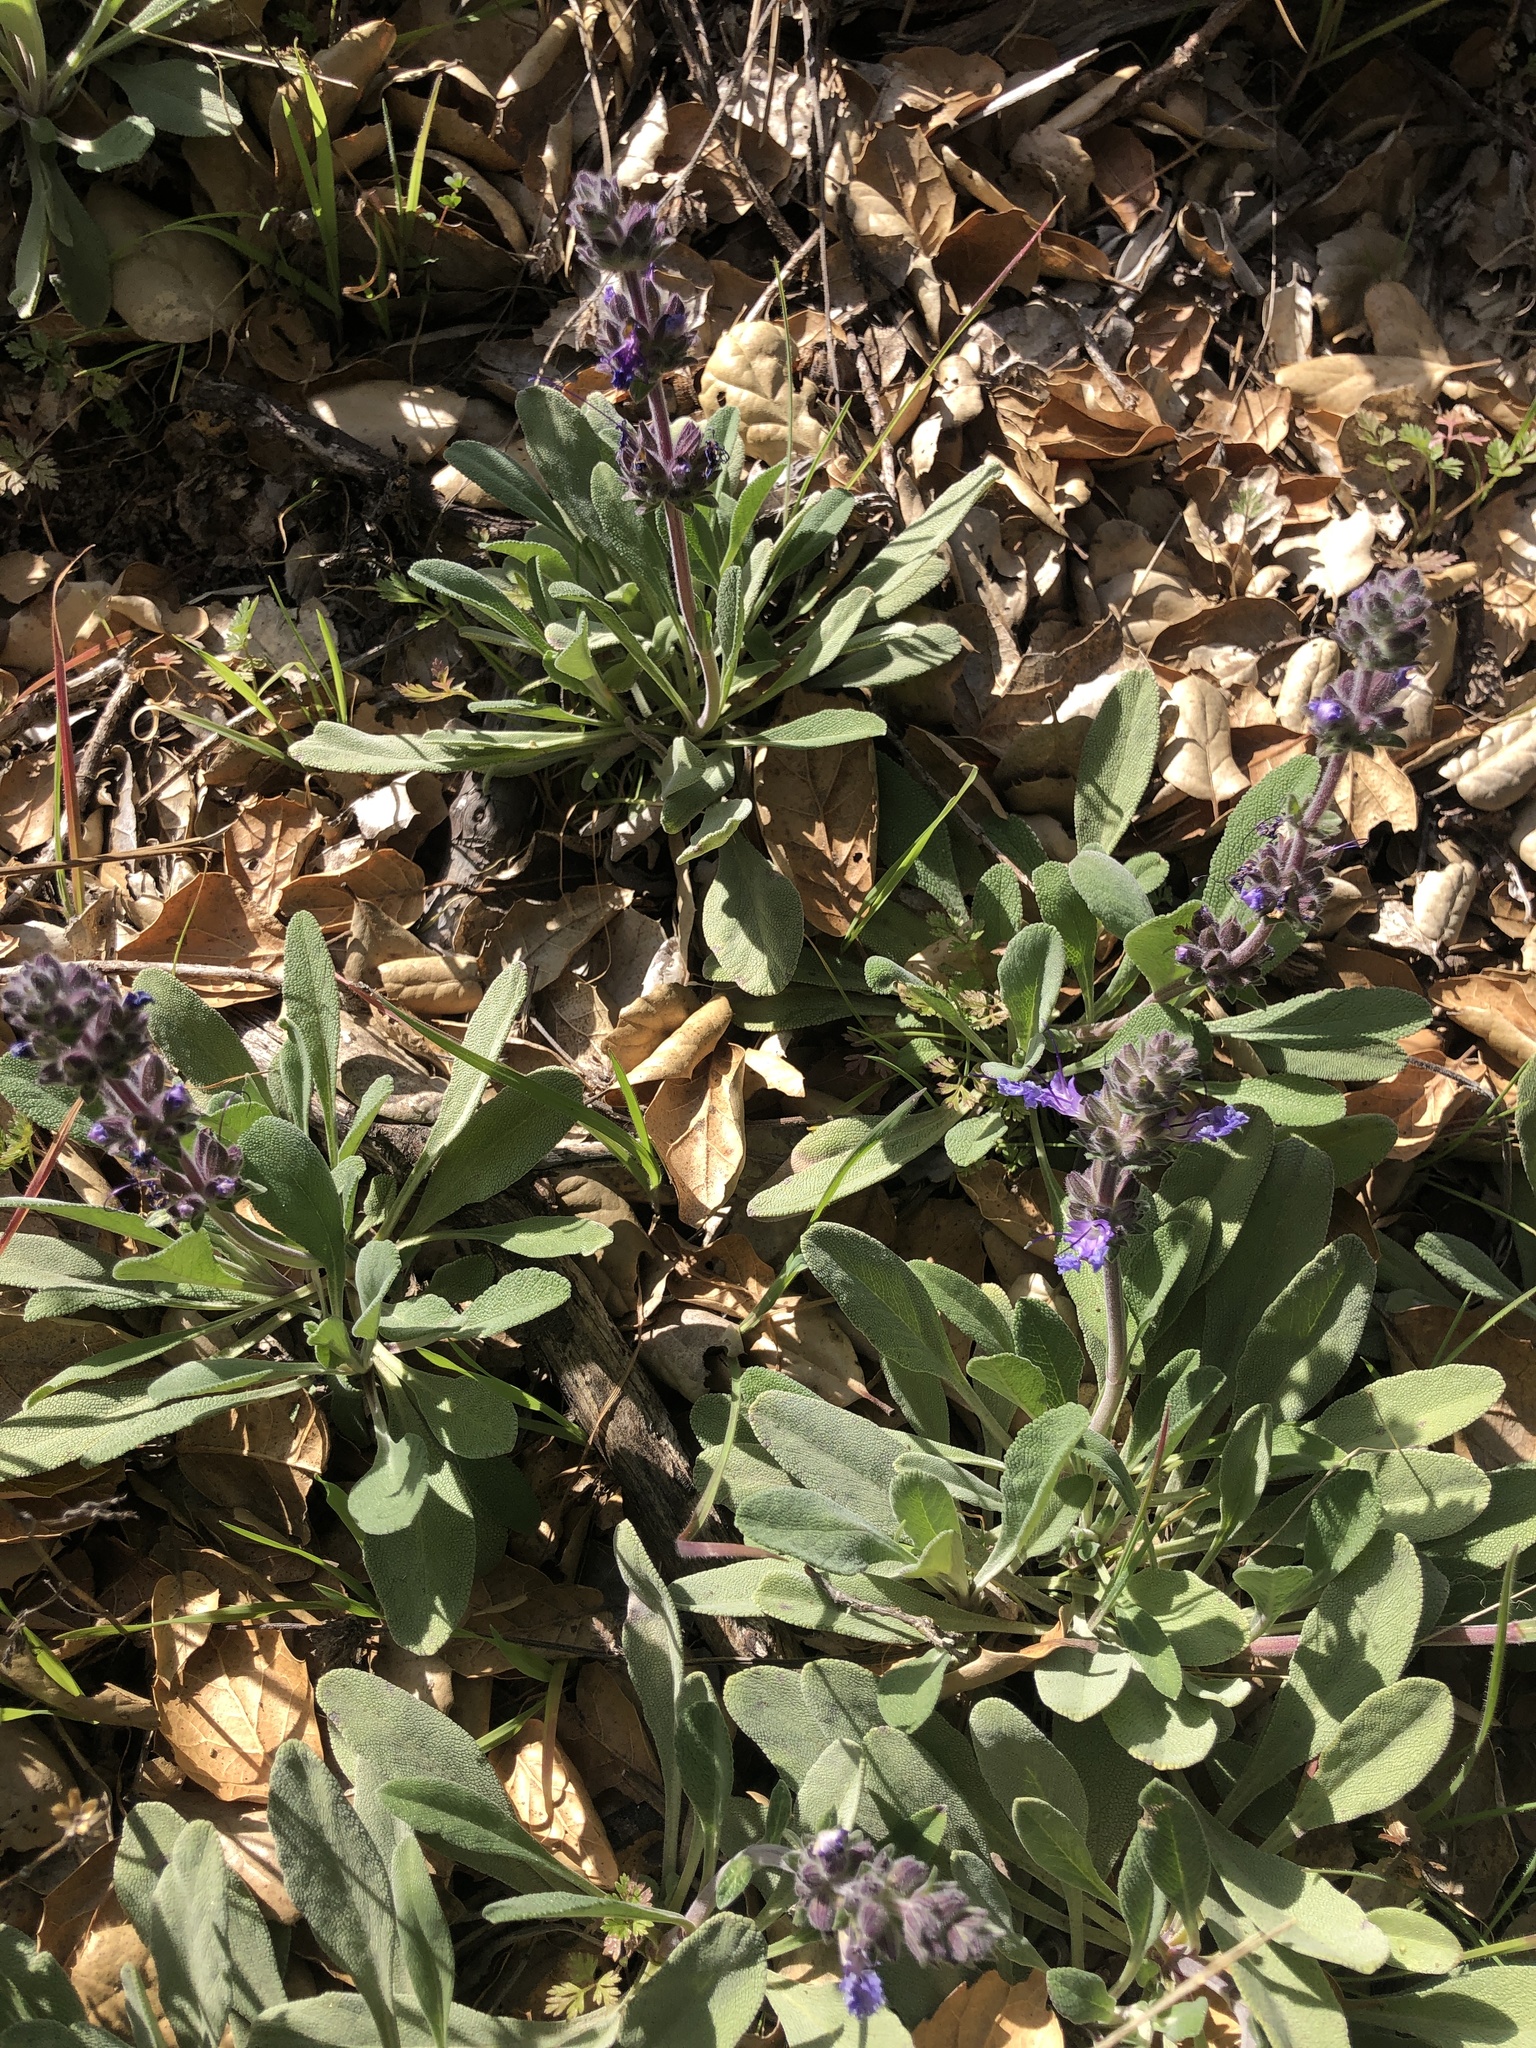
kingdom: Plantae
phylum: Tracheophyta
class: Magnoliopsida
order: Lamiales
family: Lamiaceae
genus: Salvia
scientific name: Salvia sonomensis
